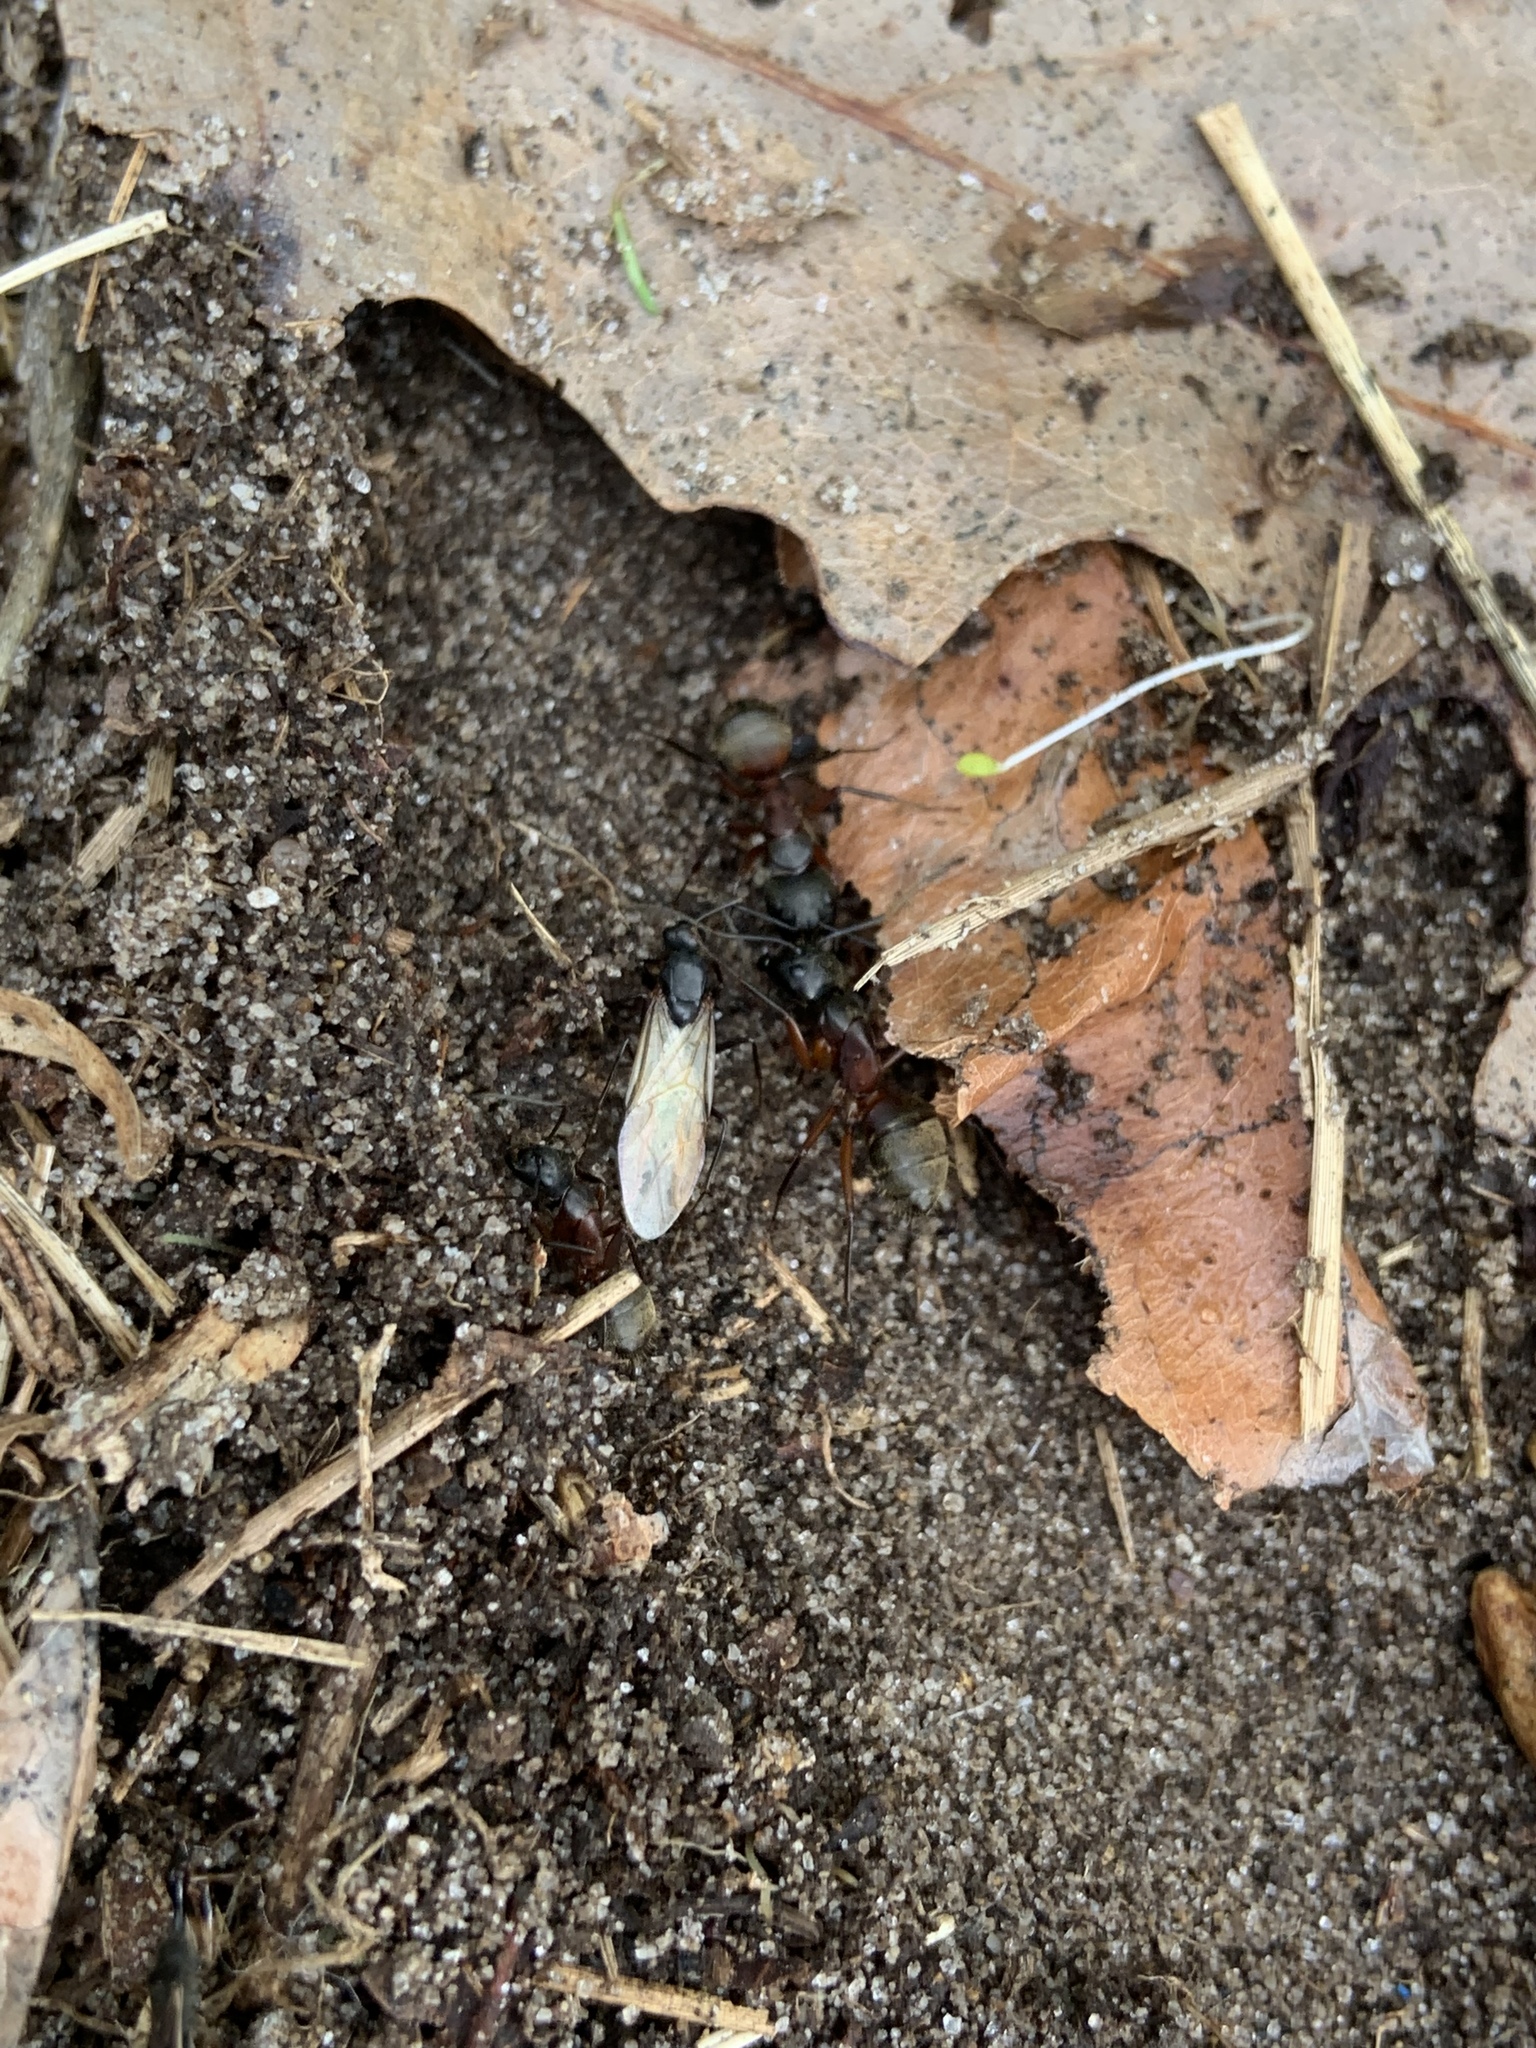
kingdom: Animalia
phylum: Arthropoda
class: Insecta
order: Hymenoptera
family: Formicidae
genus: Camponotus
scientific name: Camponotus chromaiodes
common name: Red carpenter ant
